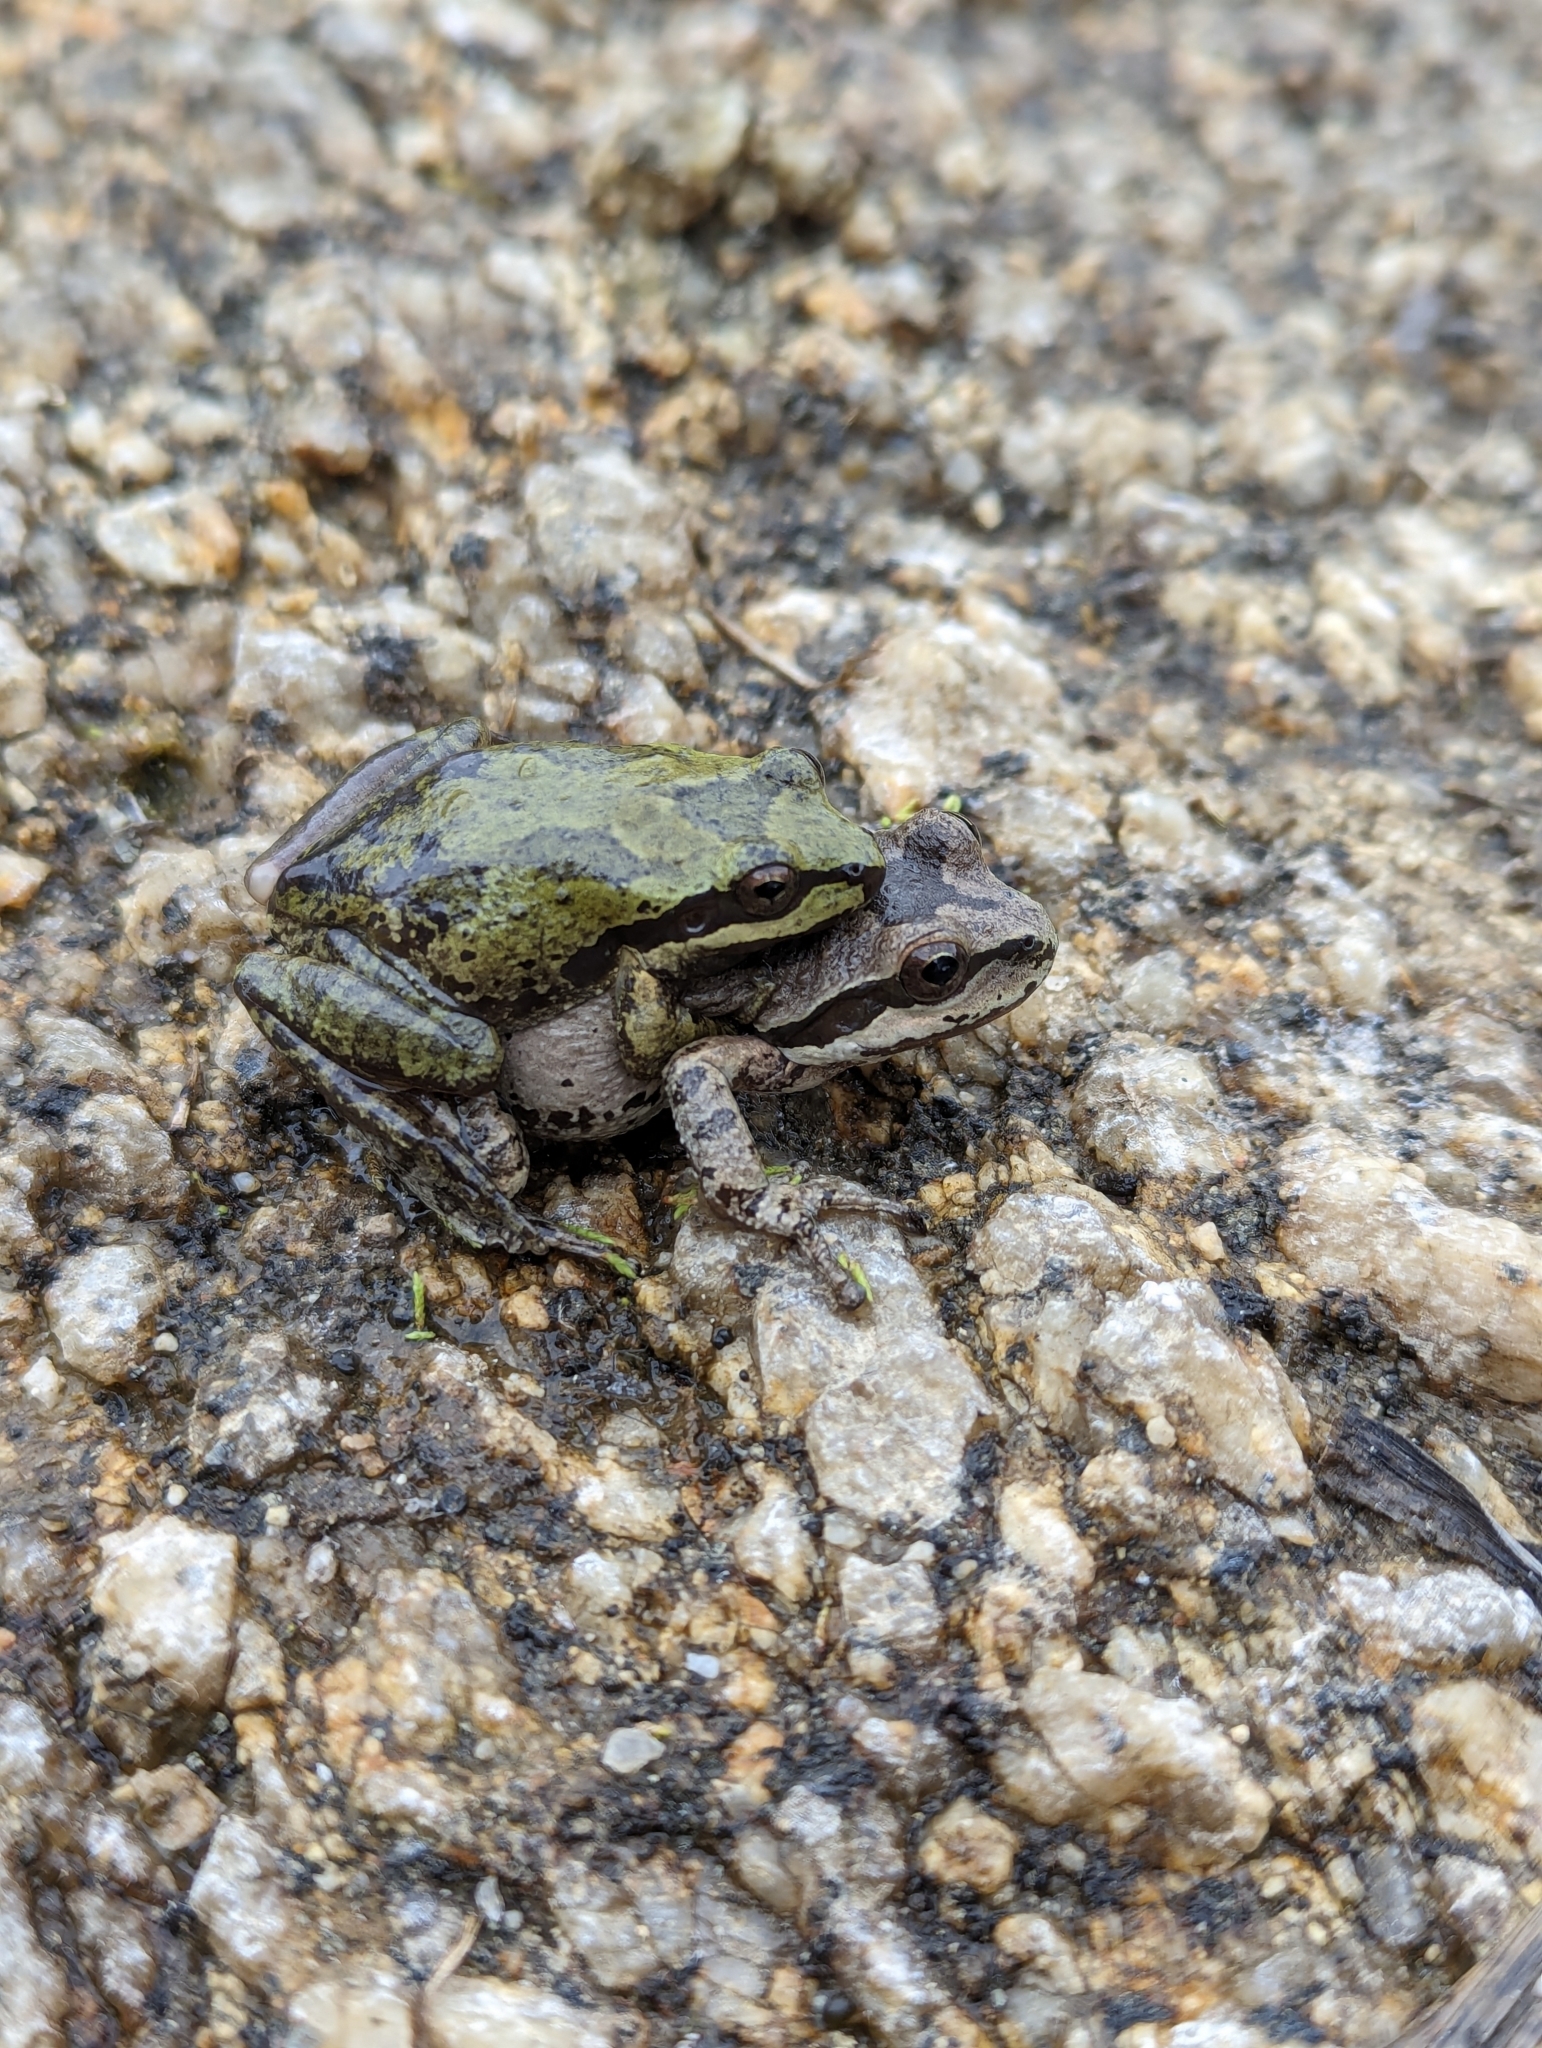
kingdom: Animalia
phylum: Chordata
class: Amphibia
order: Anura
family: Hylidae
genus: Pseudacris
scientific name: Pseudacris regilla
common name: Pacific chorus frog
